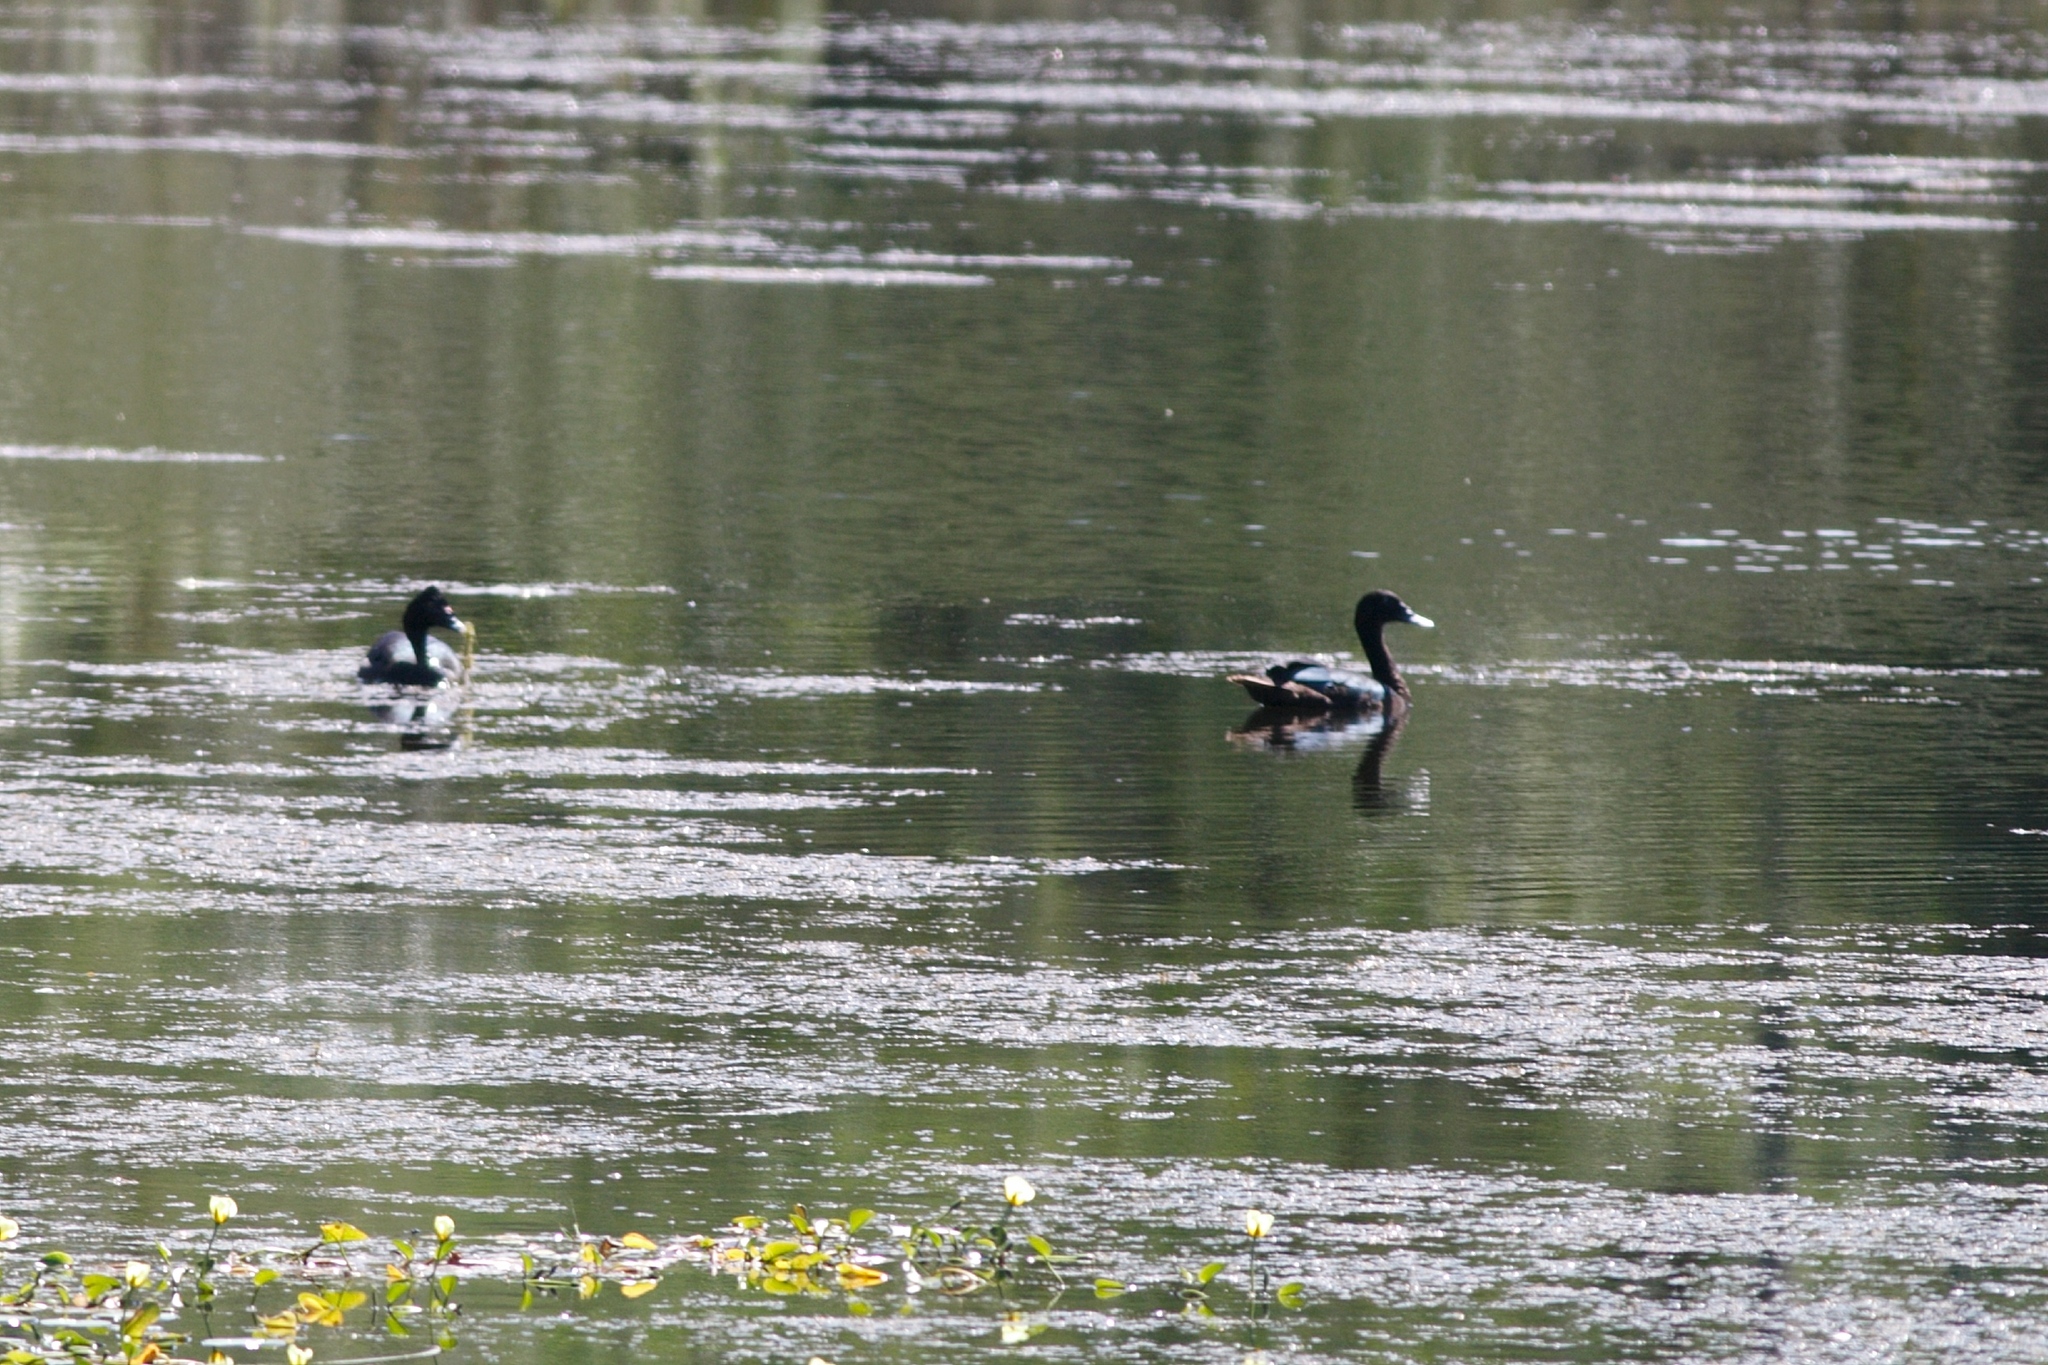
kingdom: Animalia
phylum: Chordata
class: Aves
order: Anseriformes
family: Anatidae
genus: Cairina
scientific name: Cairina moschata
